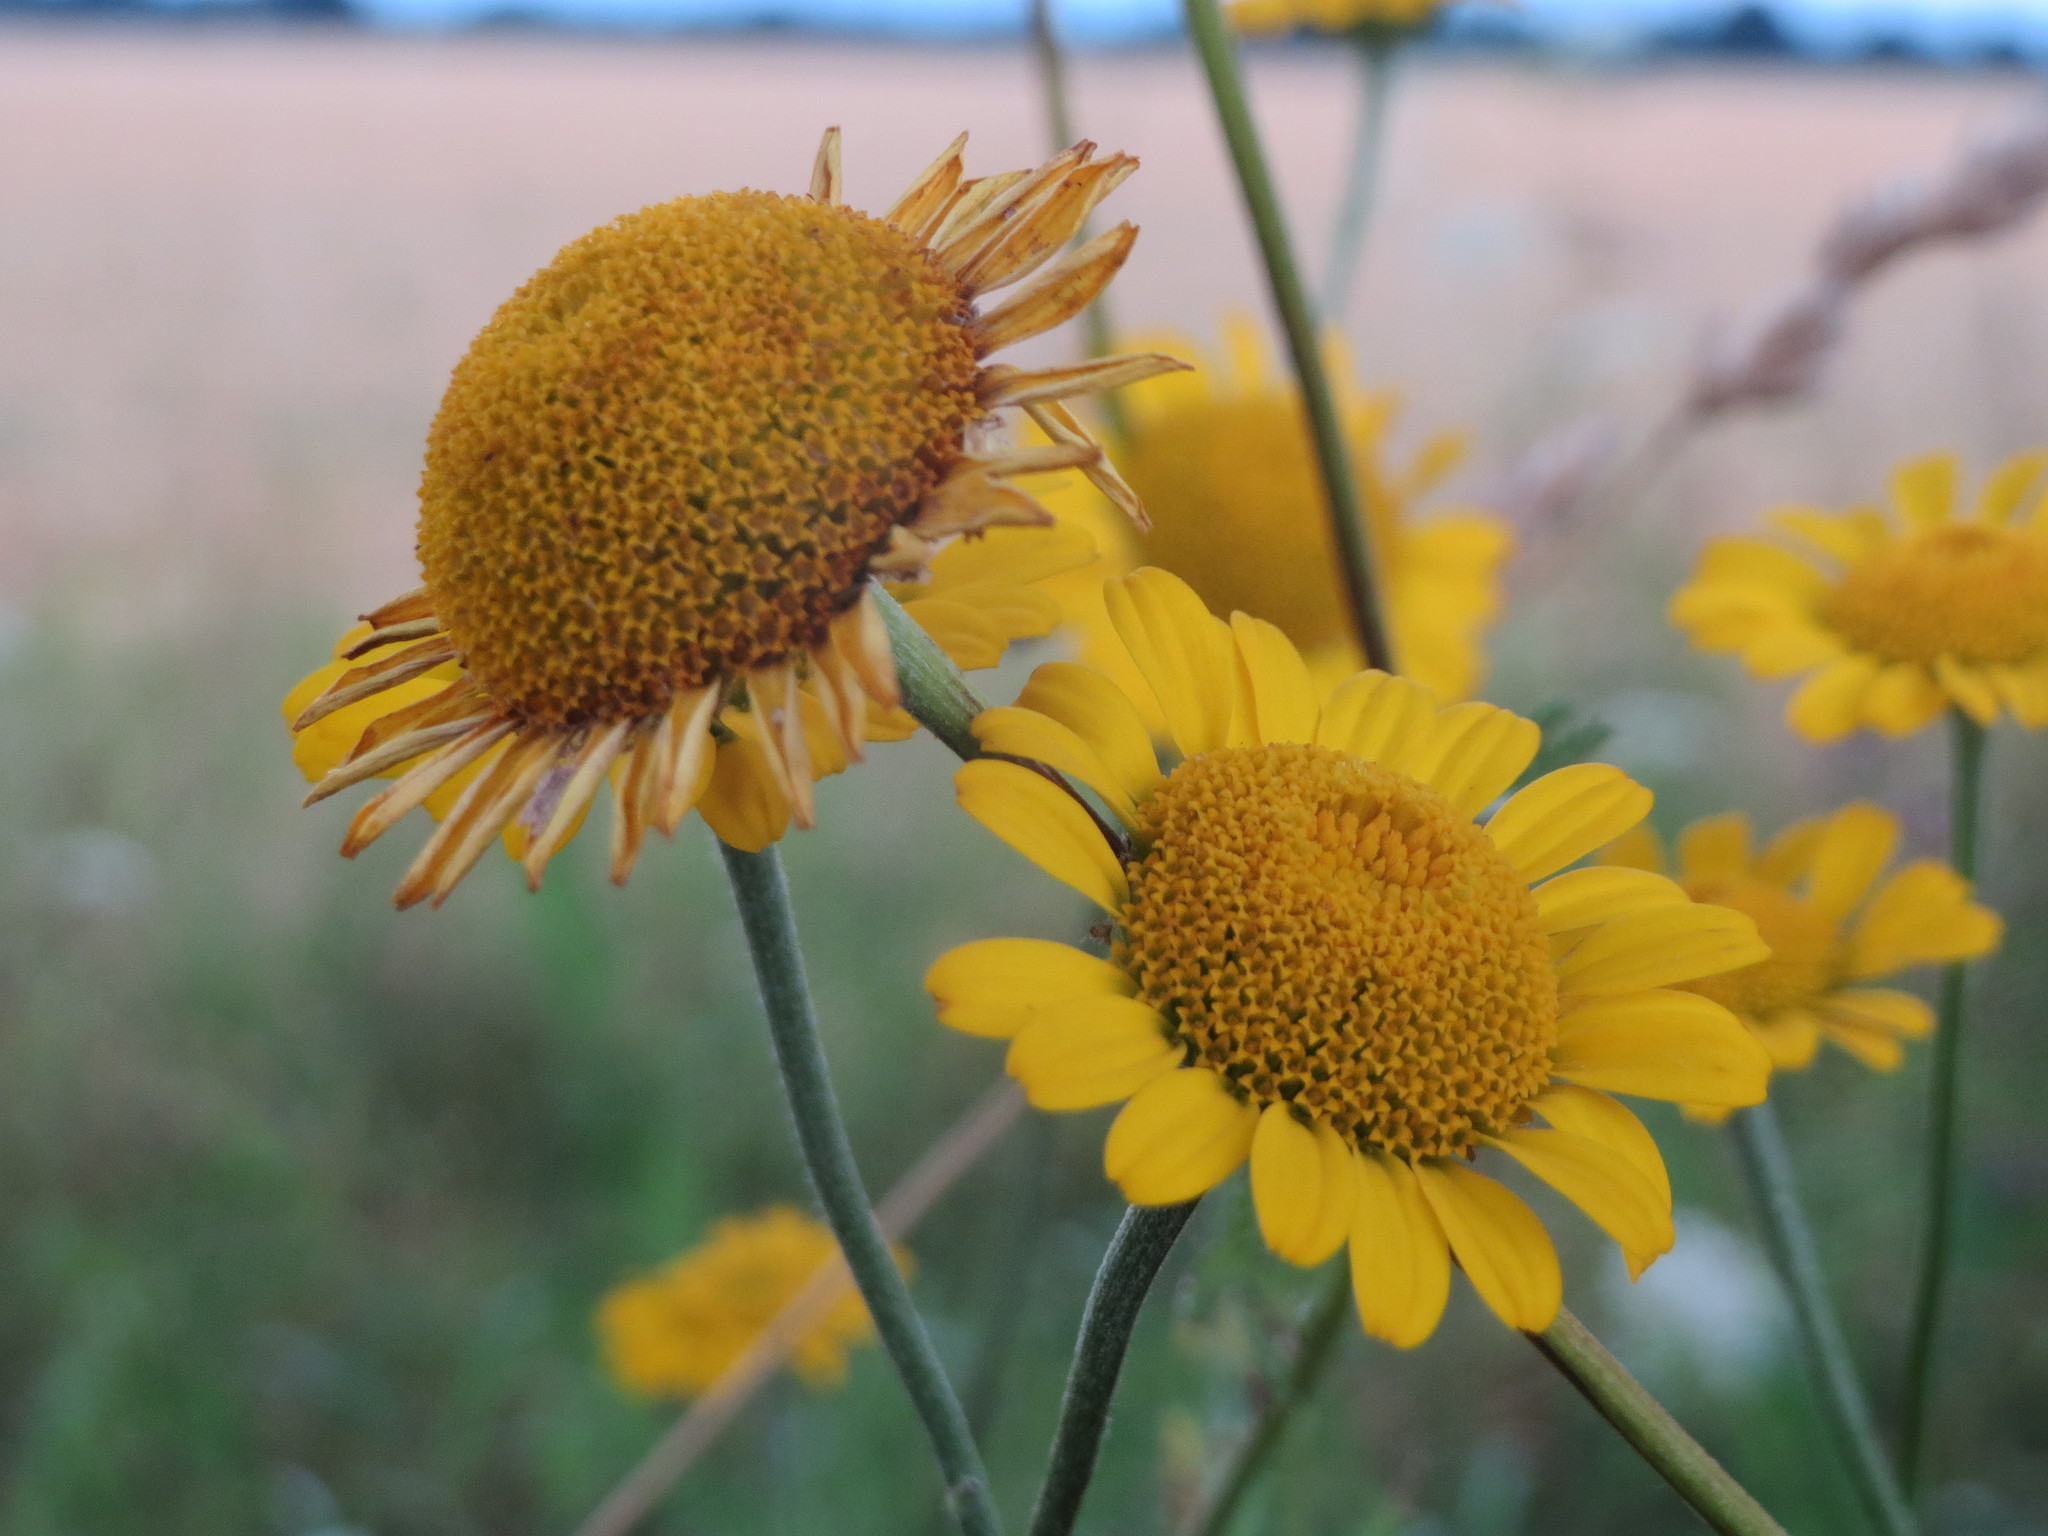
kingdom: Plantae
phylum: Tracheophyta
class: Magnoliopsida
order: Asterales
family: Asteraceae
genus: Cota
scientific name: Cota tinctoria
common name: Golden chamomile
